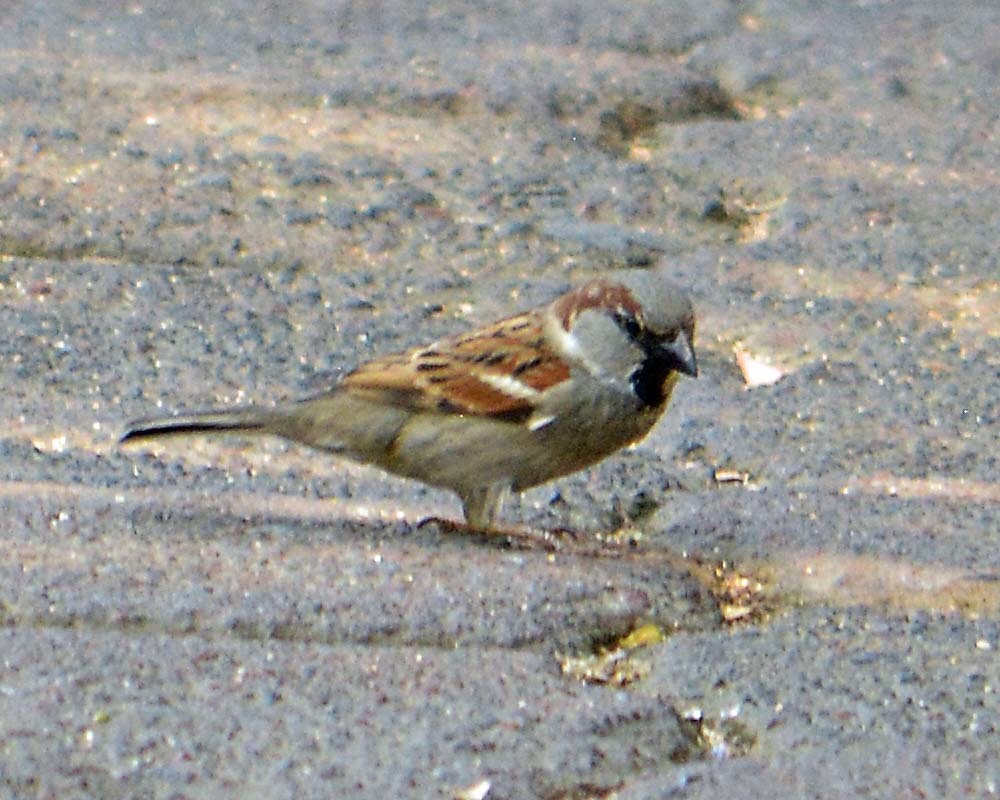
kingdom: Animalia
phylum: Chordata
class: Aves
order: Passeriformes
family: Passeridae
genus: Passer
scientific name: Passer domesticus
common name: House sparrow
